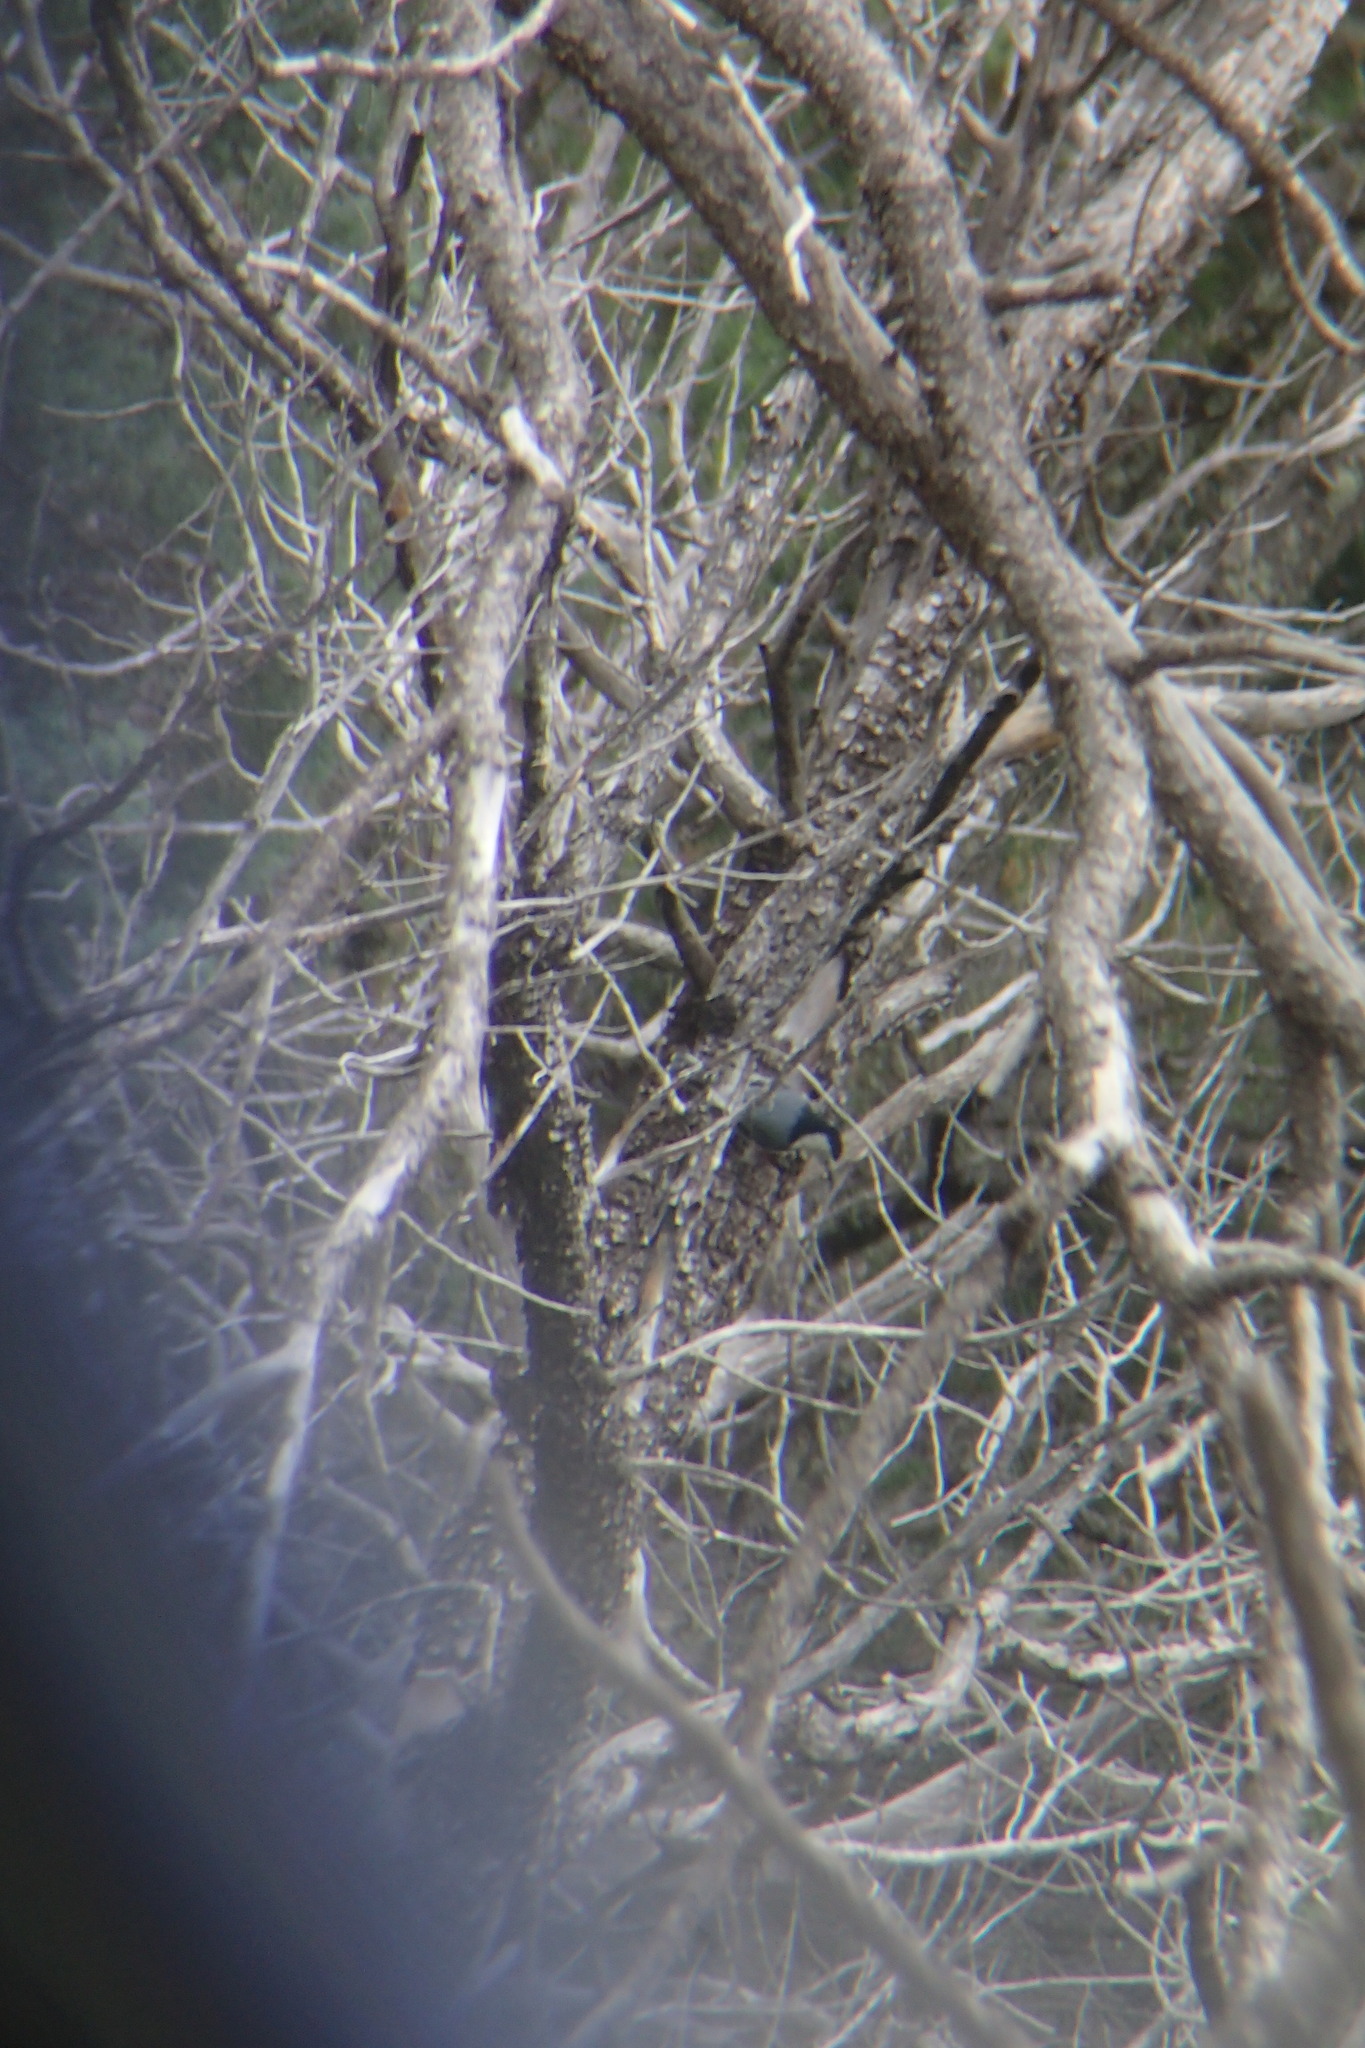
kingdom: Animalia
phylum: Chordata
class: Aves
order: Passeriformes
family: Sittidae
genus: Sitta
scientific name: Sitta carolinensis
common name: White-breasted nuthatch
